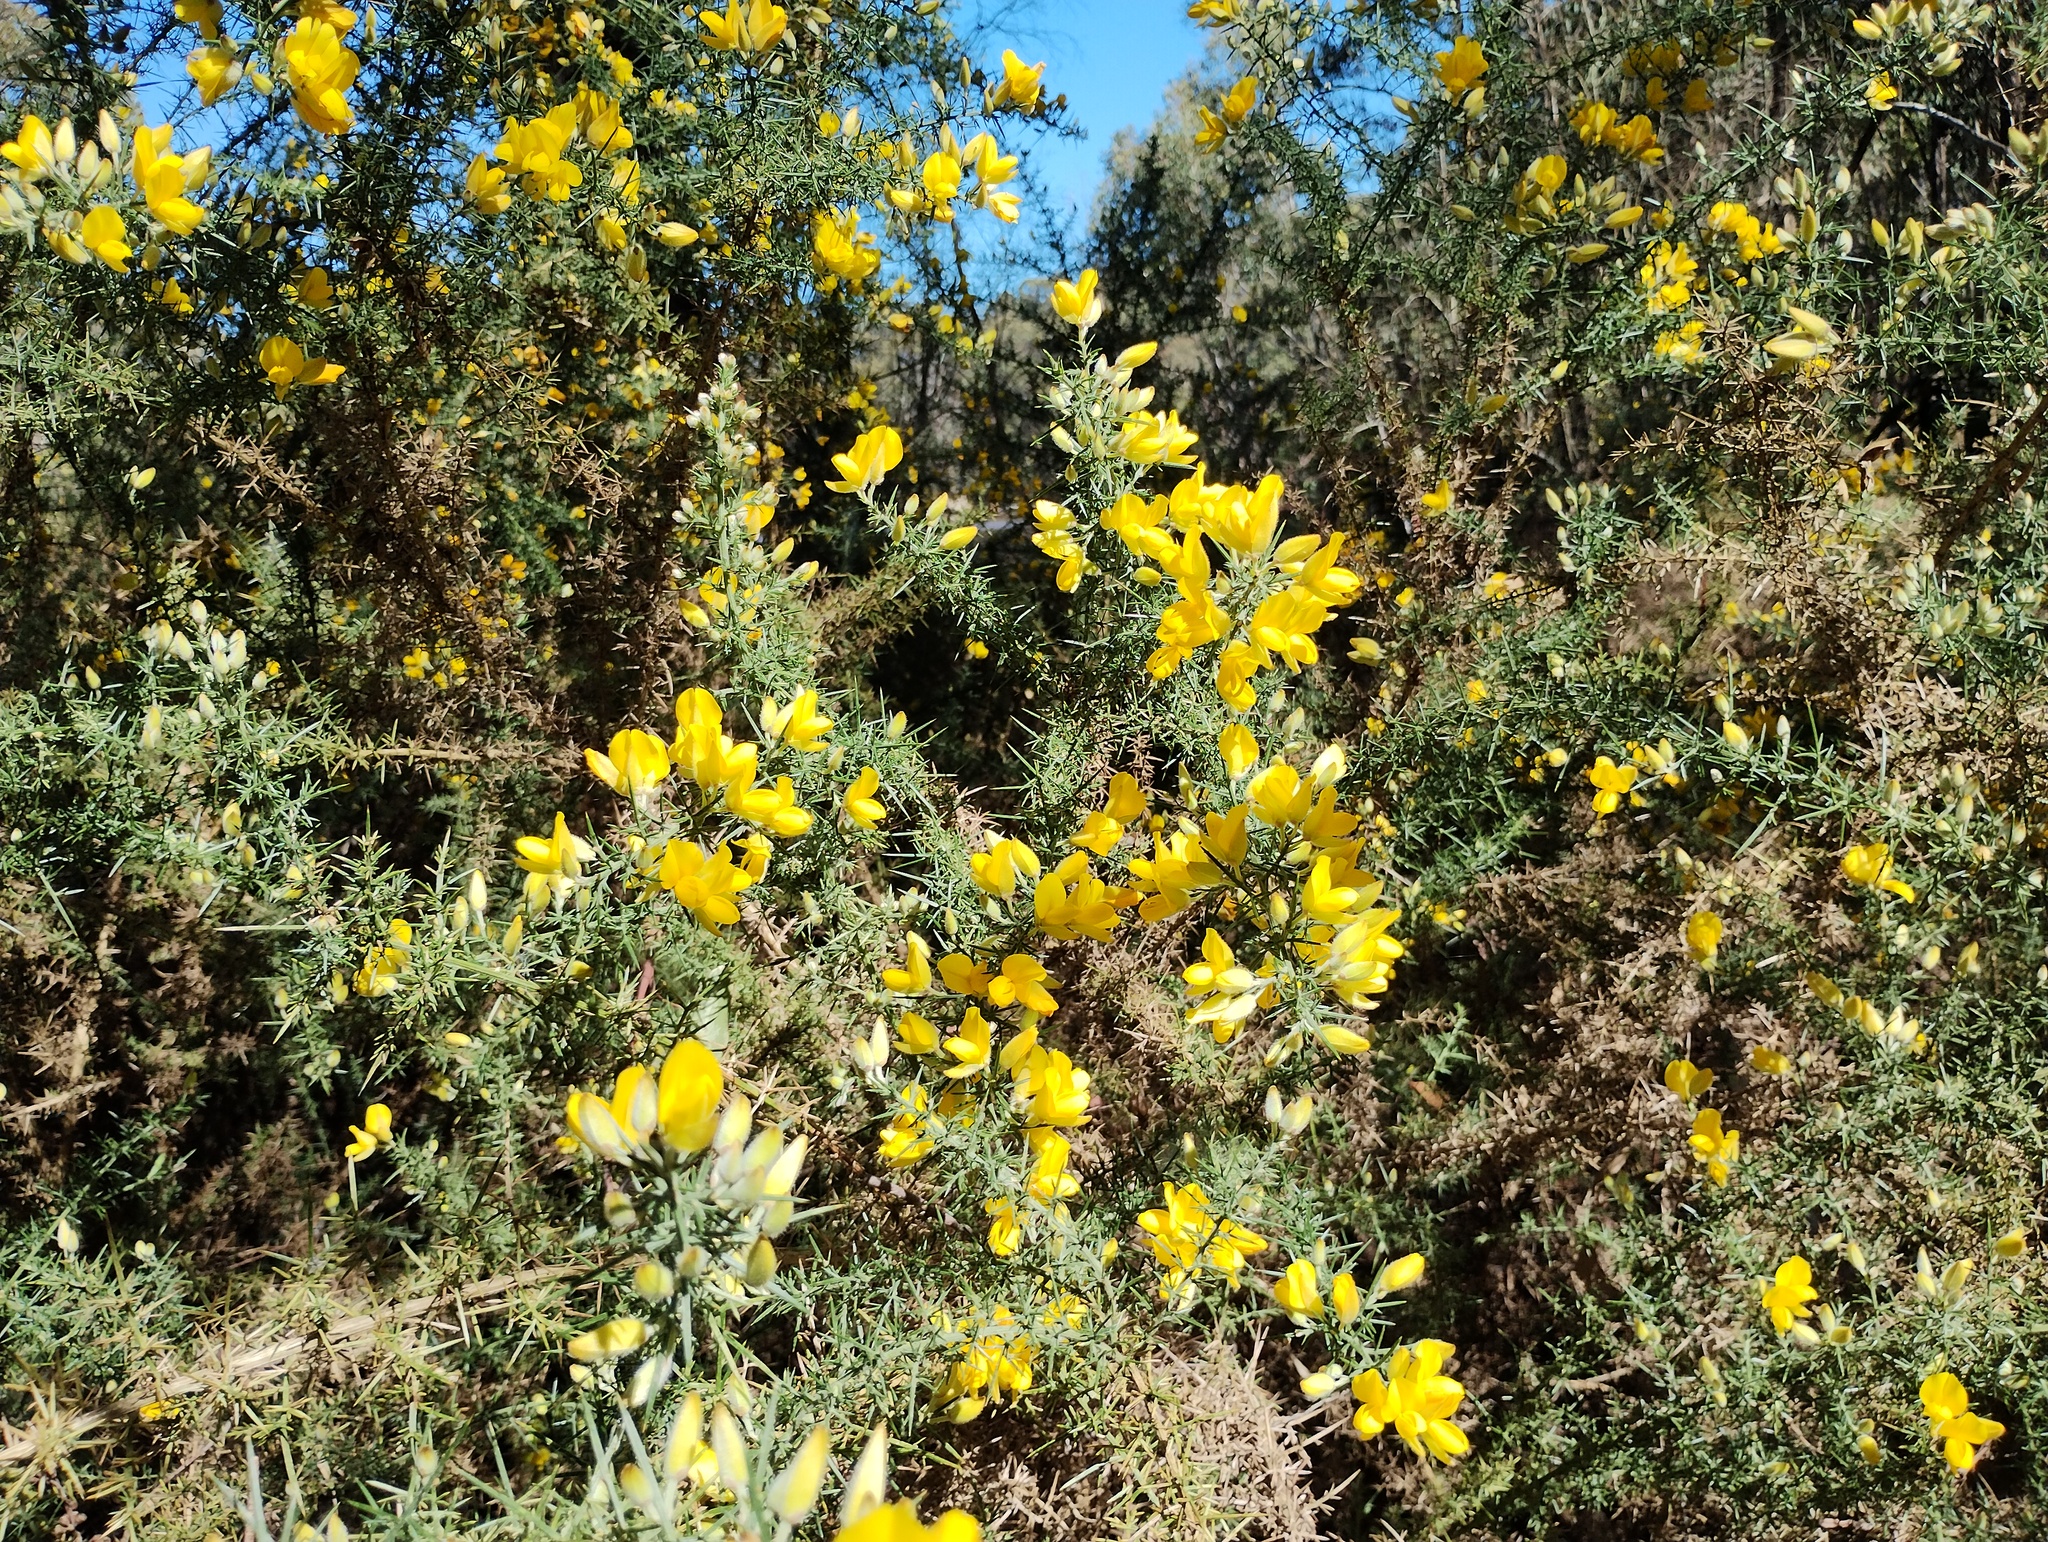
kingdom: Plantae
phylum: Tracheophyta
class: Magnoliopsida
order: Fabales
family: Fabaceae
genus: Ulex
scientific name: Ulex europaeus
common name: Common gorse
